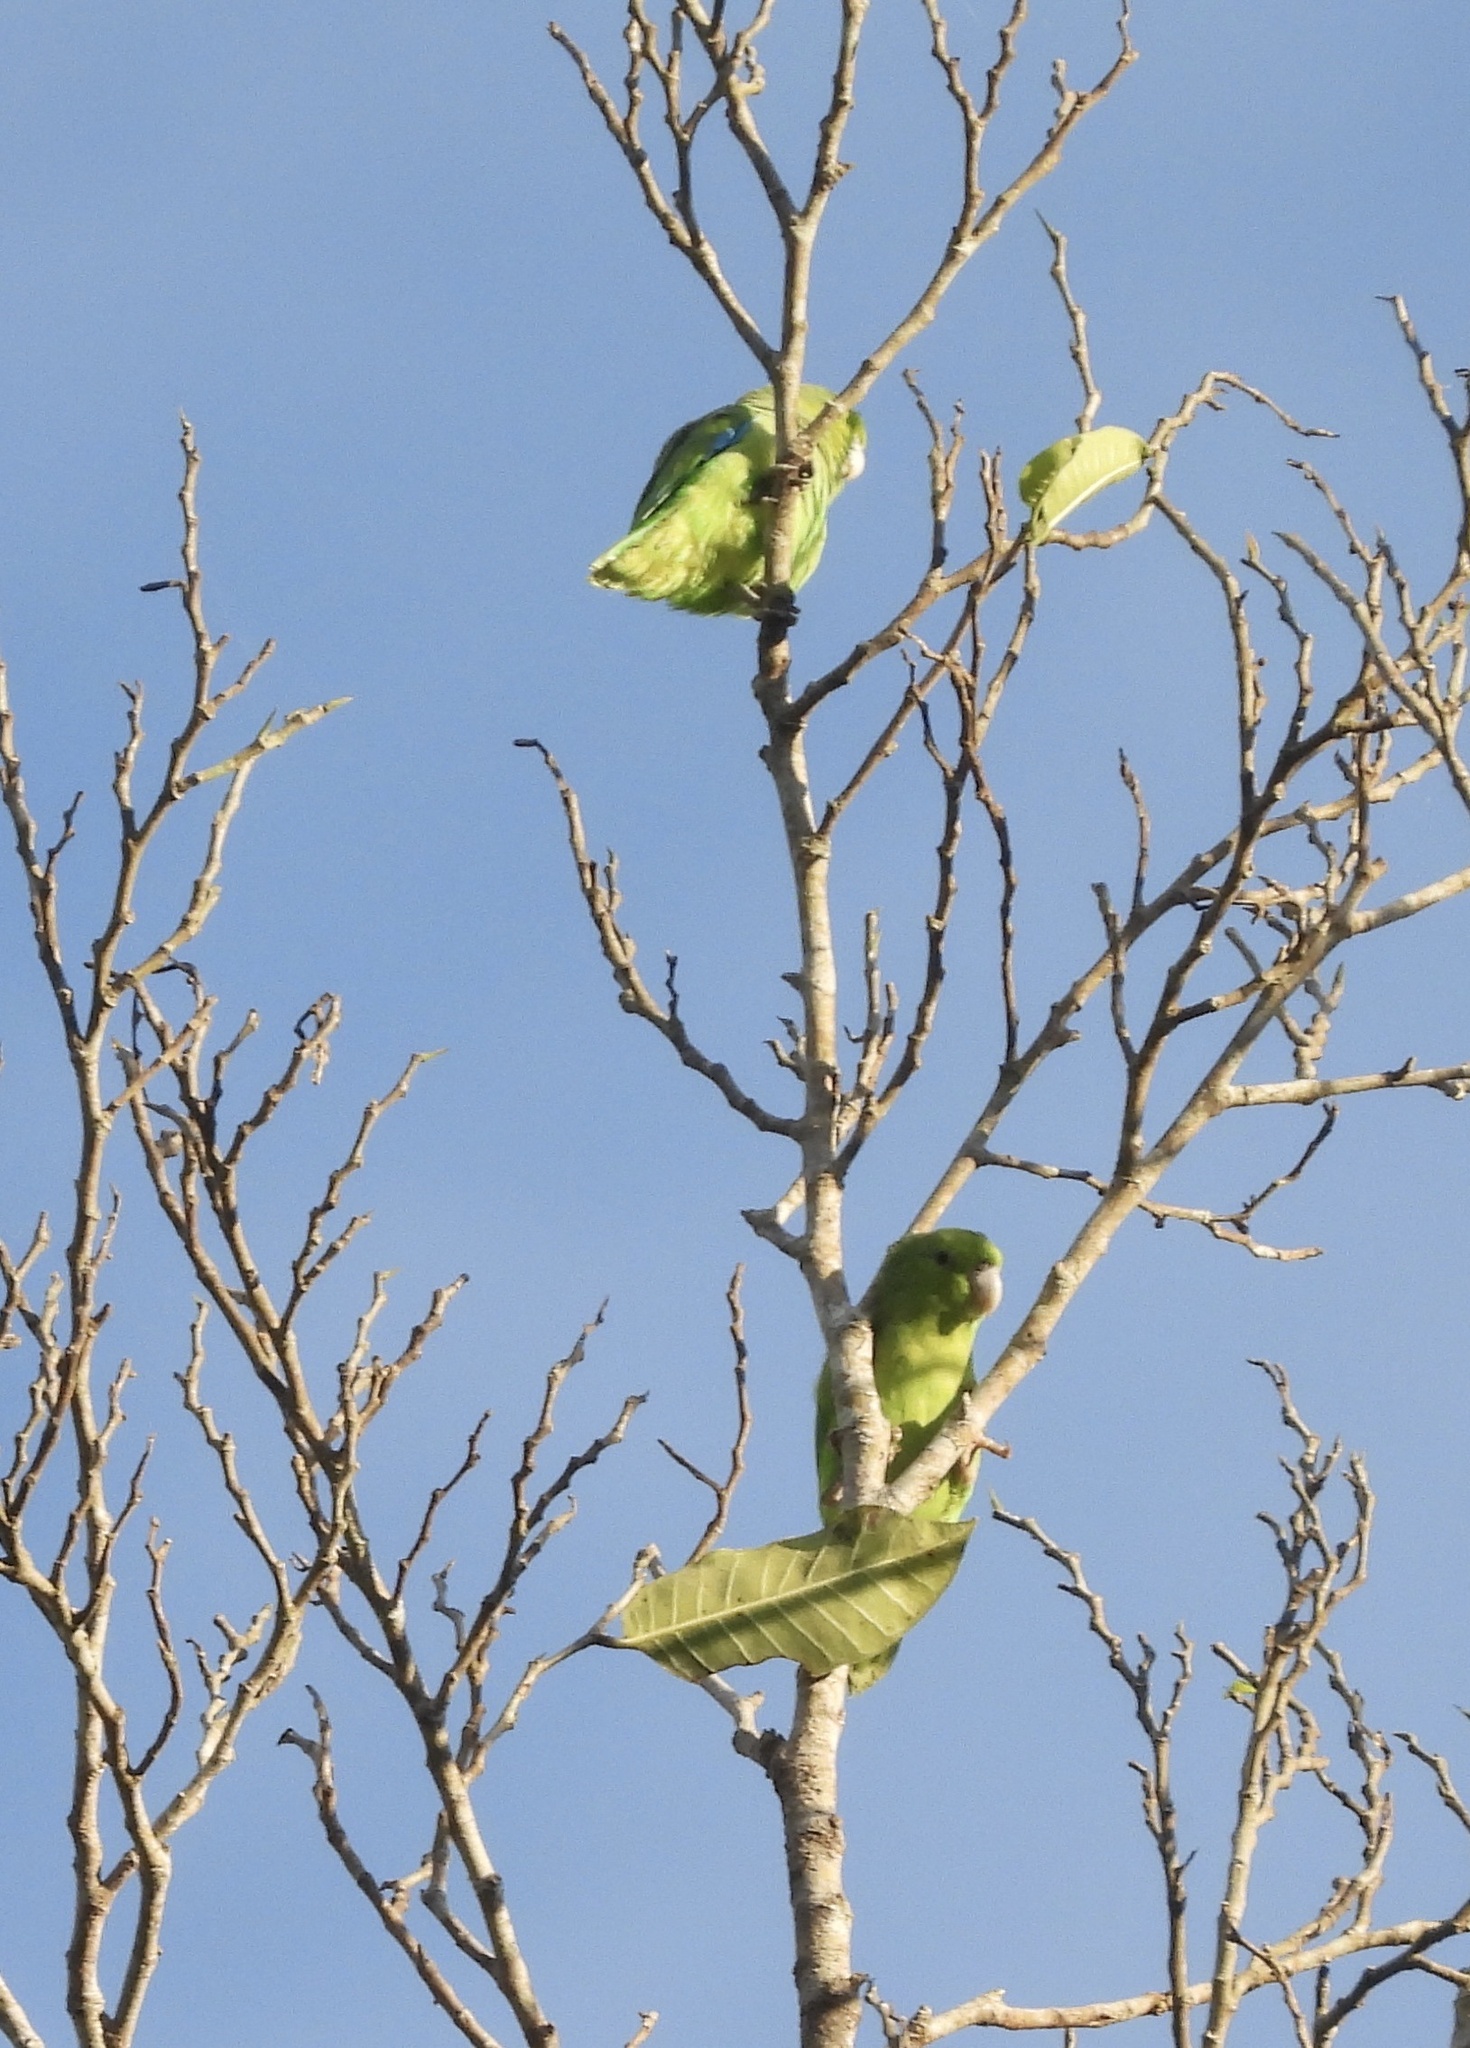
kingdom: Animalia
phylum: Chordata
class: Aves
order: Psittaciformes
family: Psittacidae
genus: Forpus
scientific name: Forpus cyanopygius
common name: Mexican parrotlet
